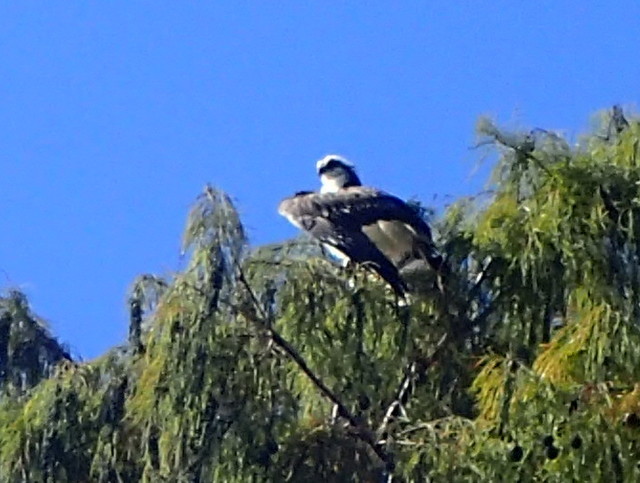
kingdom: Animalia
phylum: Chordata
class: Aves
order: Accipitriformes
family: Pandionidae
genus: Pandion
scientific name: Pandion haliaetus
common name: Osprey
